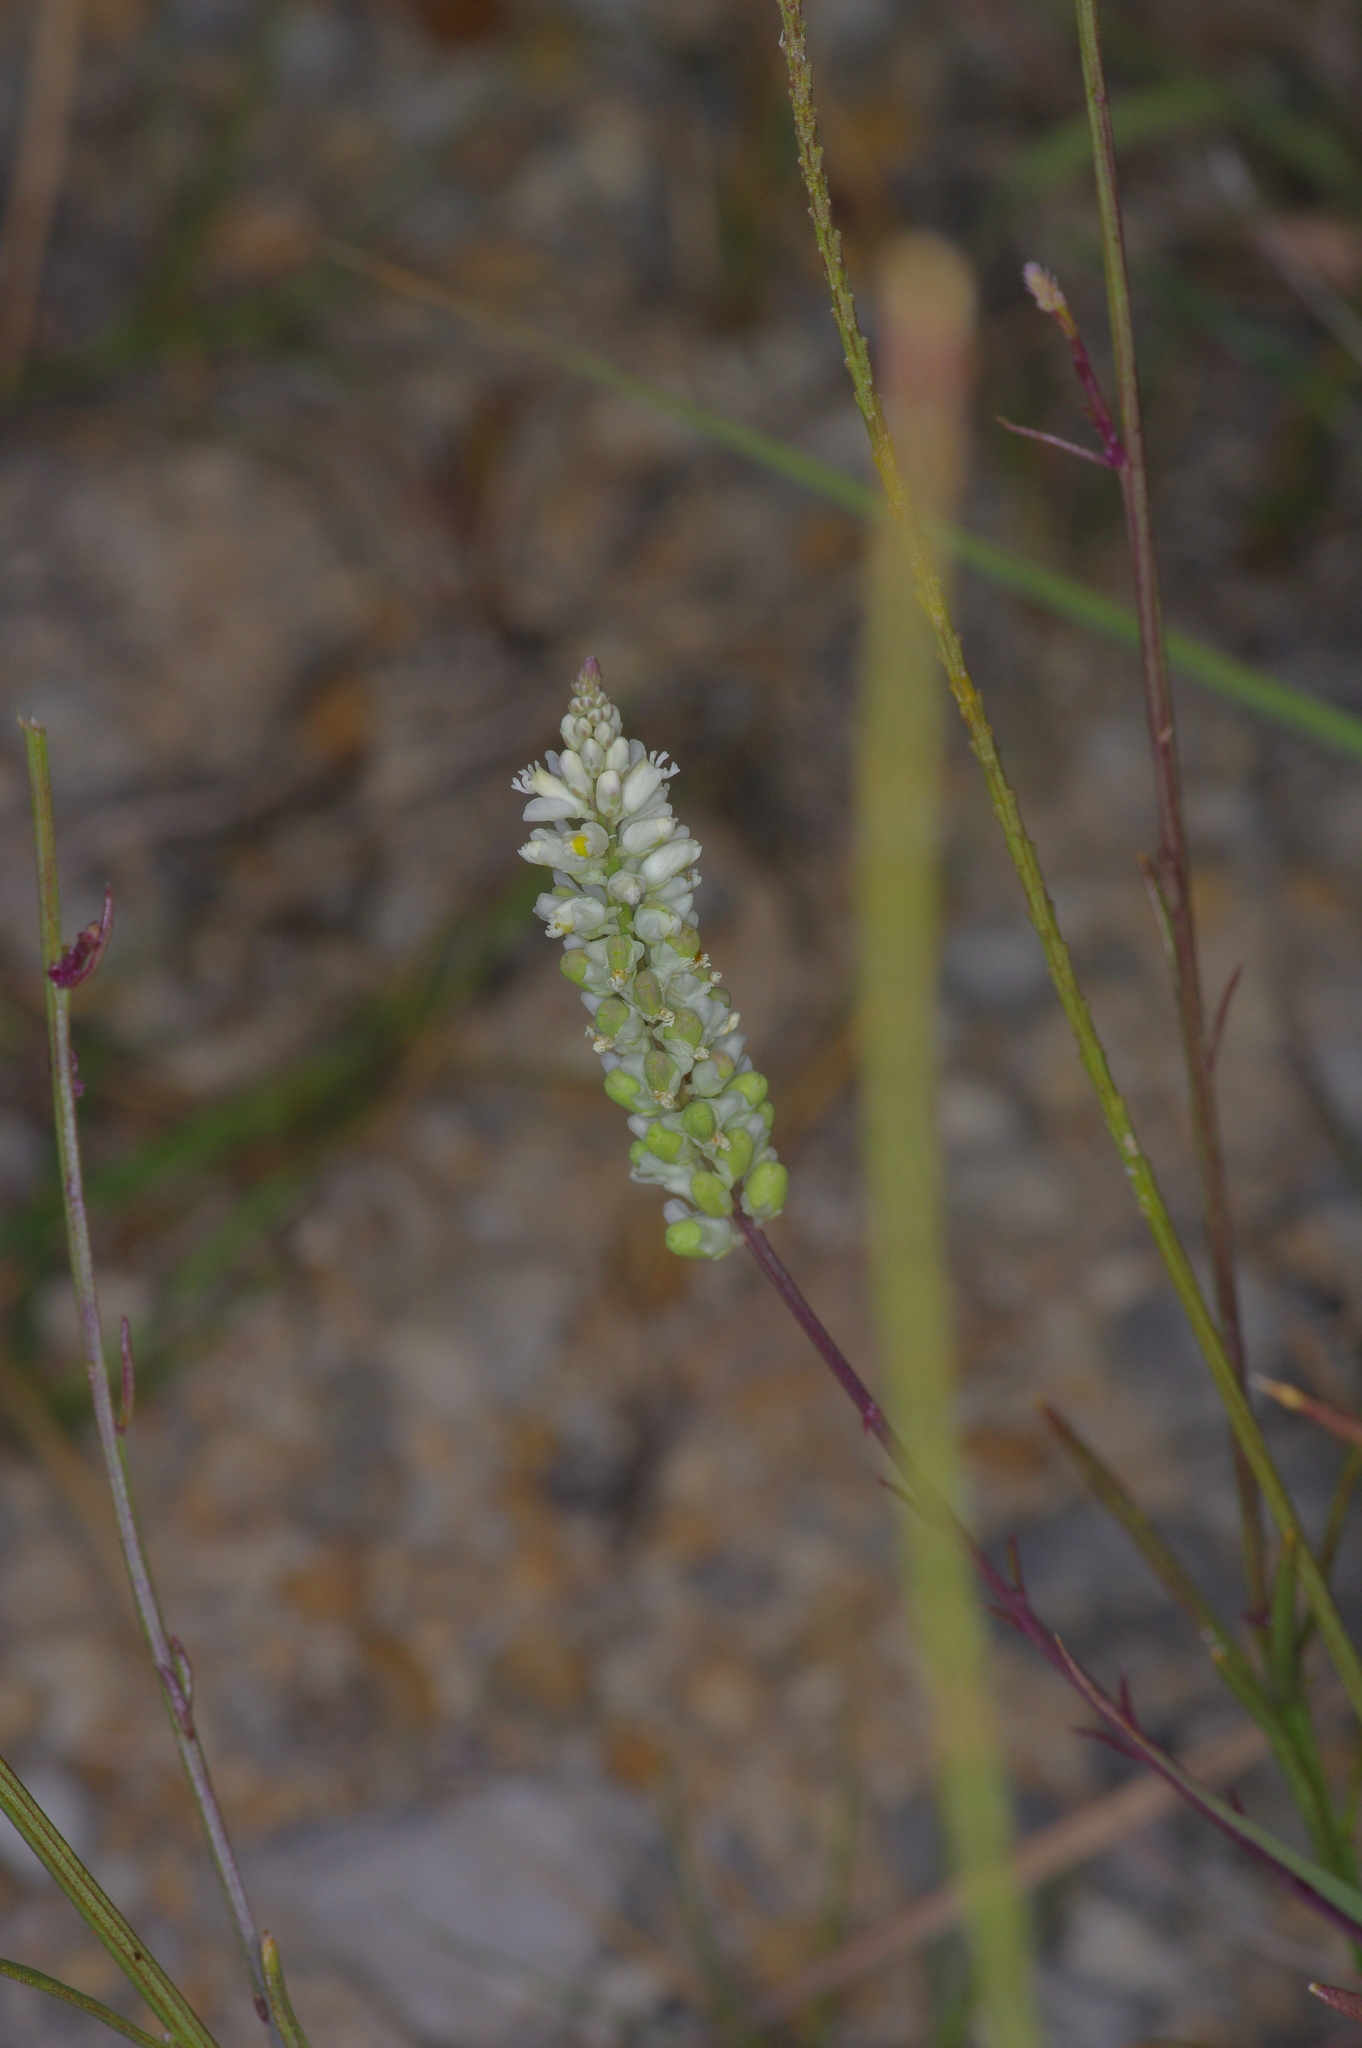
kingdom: Plantae
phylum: Tracheophyta
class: Magnoliopsida
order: Fabales
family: Polygalaceae
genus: Polygala
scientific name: Polygala alba
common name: White milkwort
